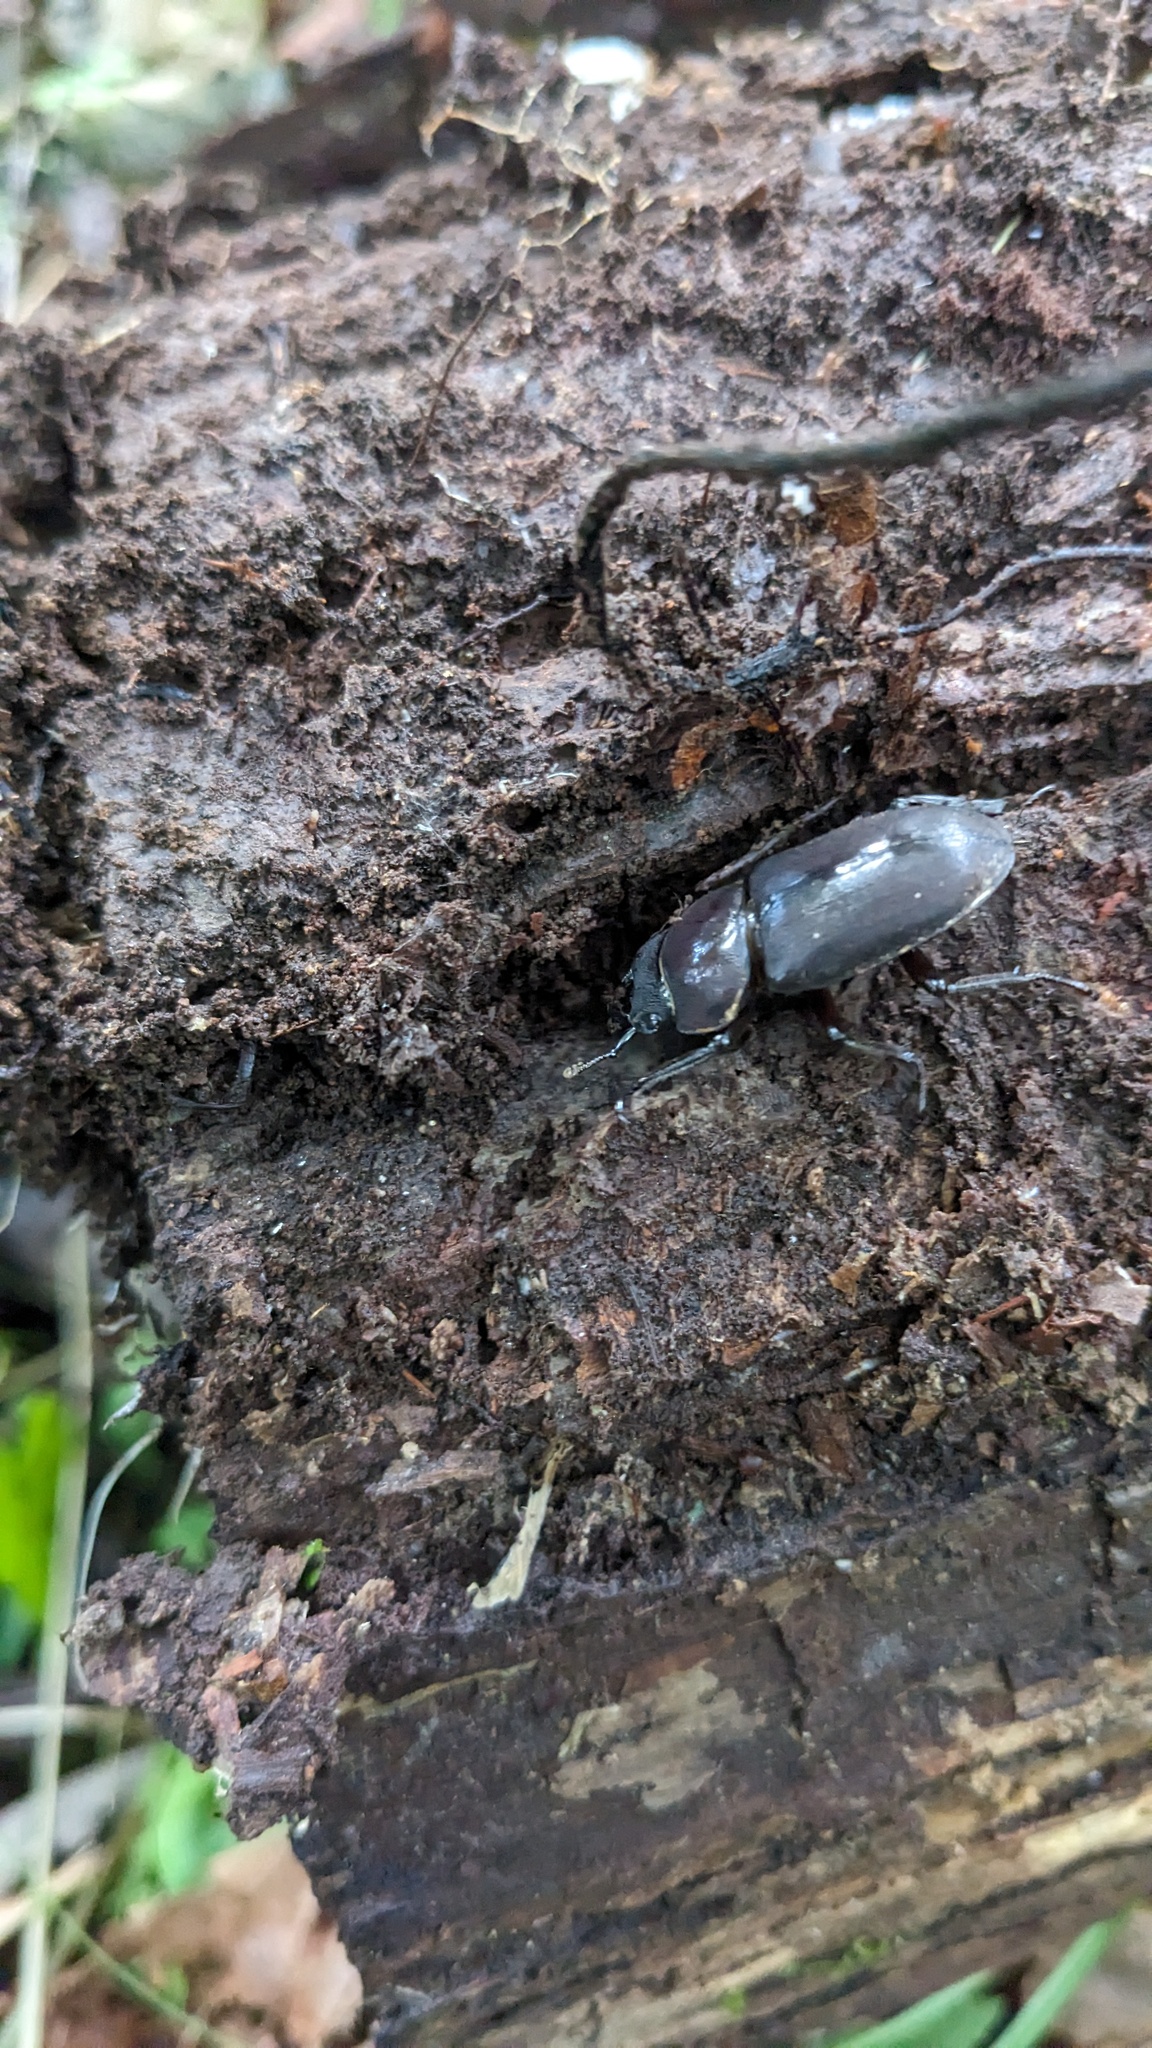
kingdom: Animalia
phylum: Arthropoda
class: Insecta
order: Coleoptera
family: Lucanidae
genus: Dorcus
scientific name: Dorcus rectus
